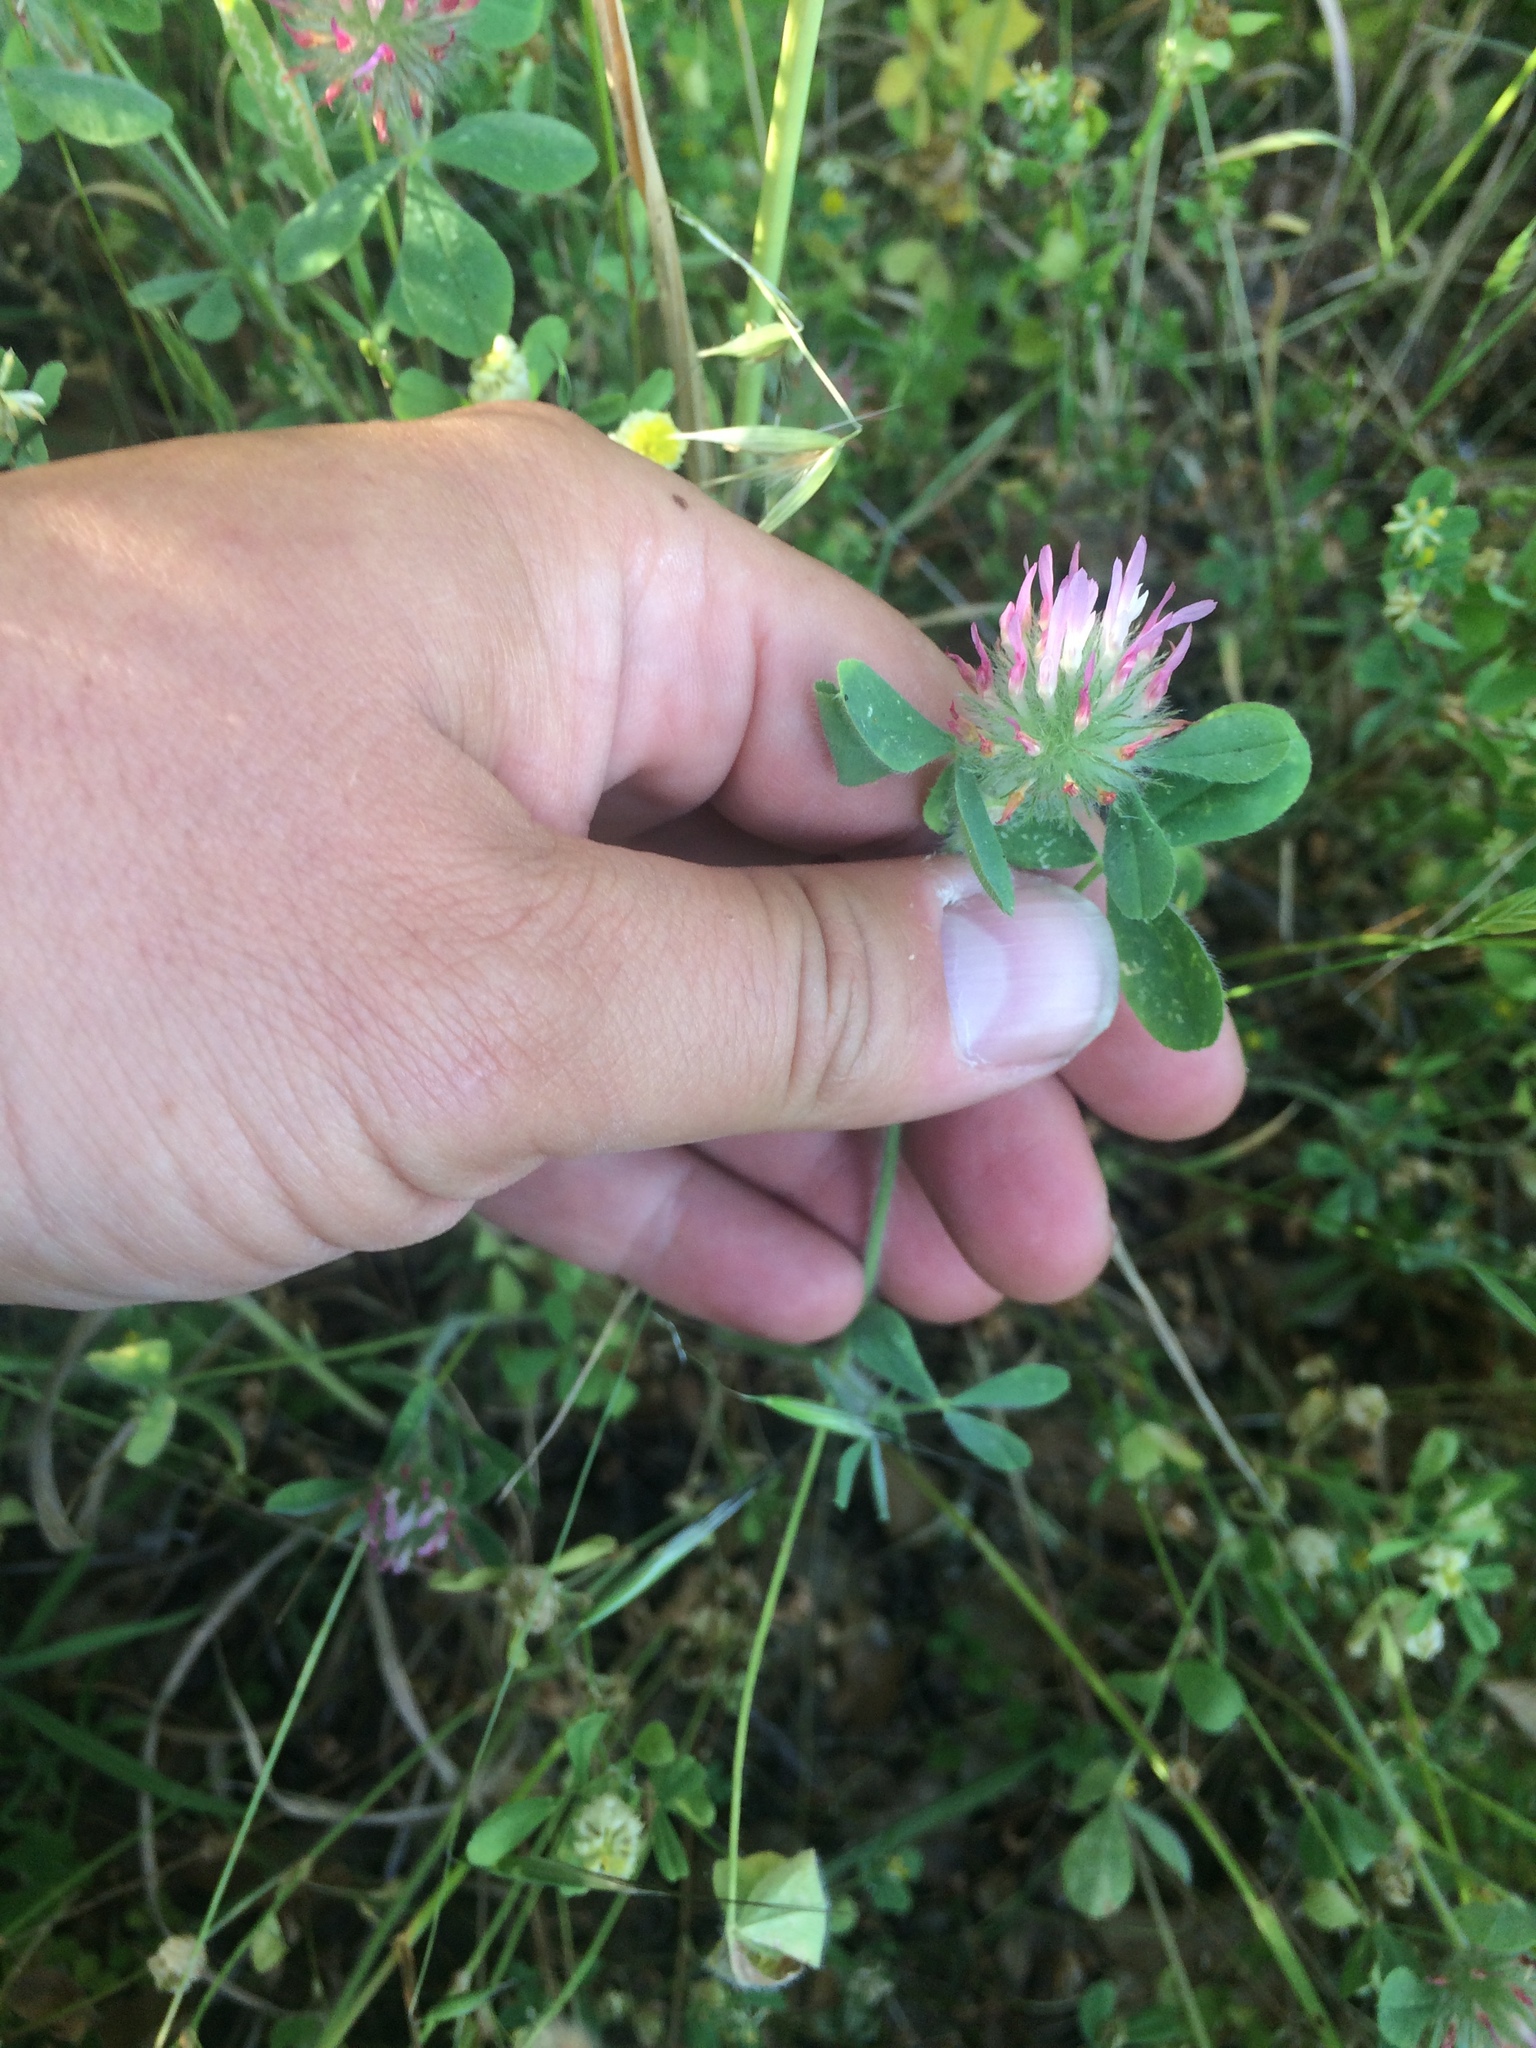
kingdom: Plantae
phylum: Tracheophyta
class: Magnoliopsida
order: Fabales
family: Fabaceae
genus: Trifolium
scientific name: Trifolium hirtum
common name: Rose clover
